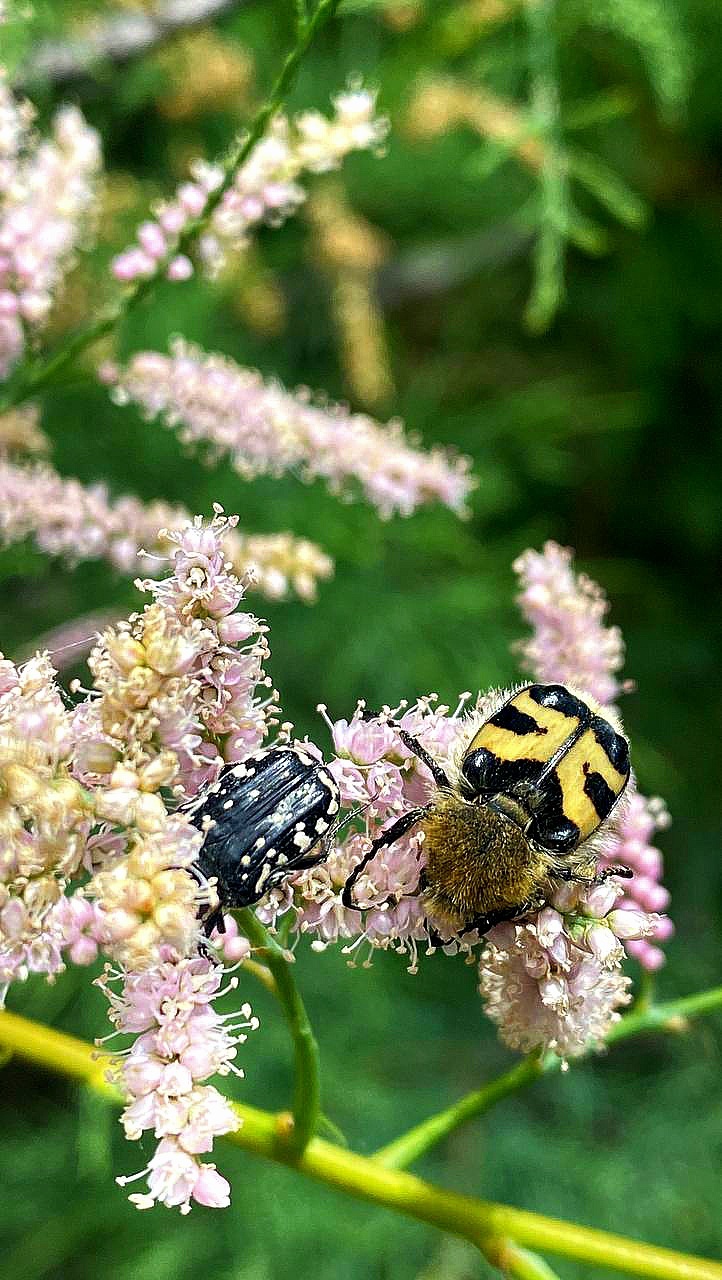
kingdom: Animalia
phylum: Arthropoda
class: Insecta
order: Coleoptera
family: Scarabaeidae
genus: Trichius
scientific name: Trichius fasciatus
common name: Bee beetle
